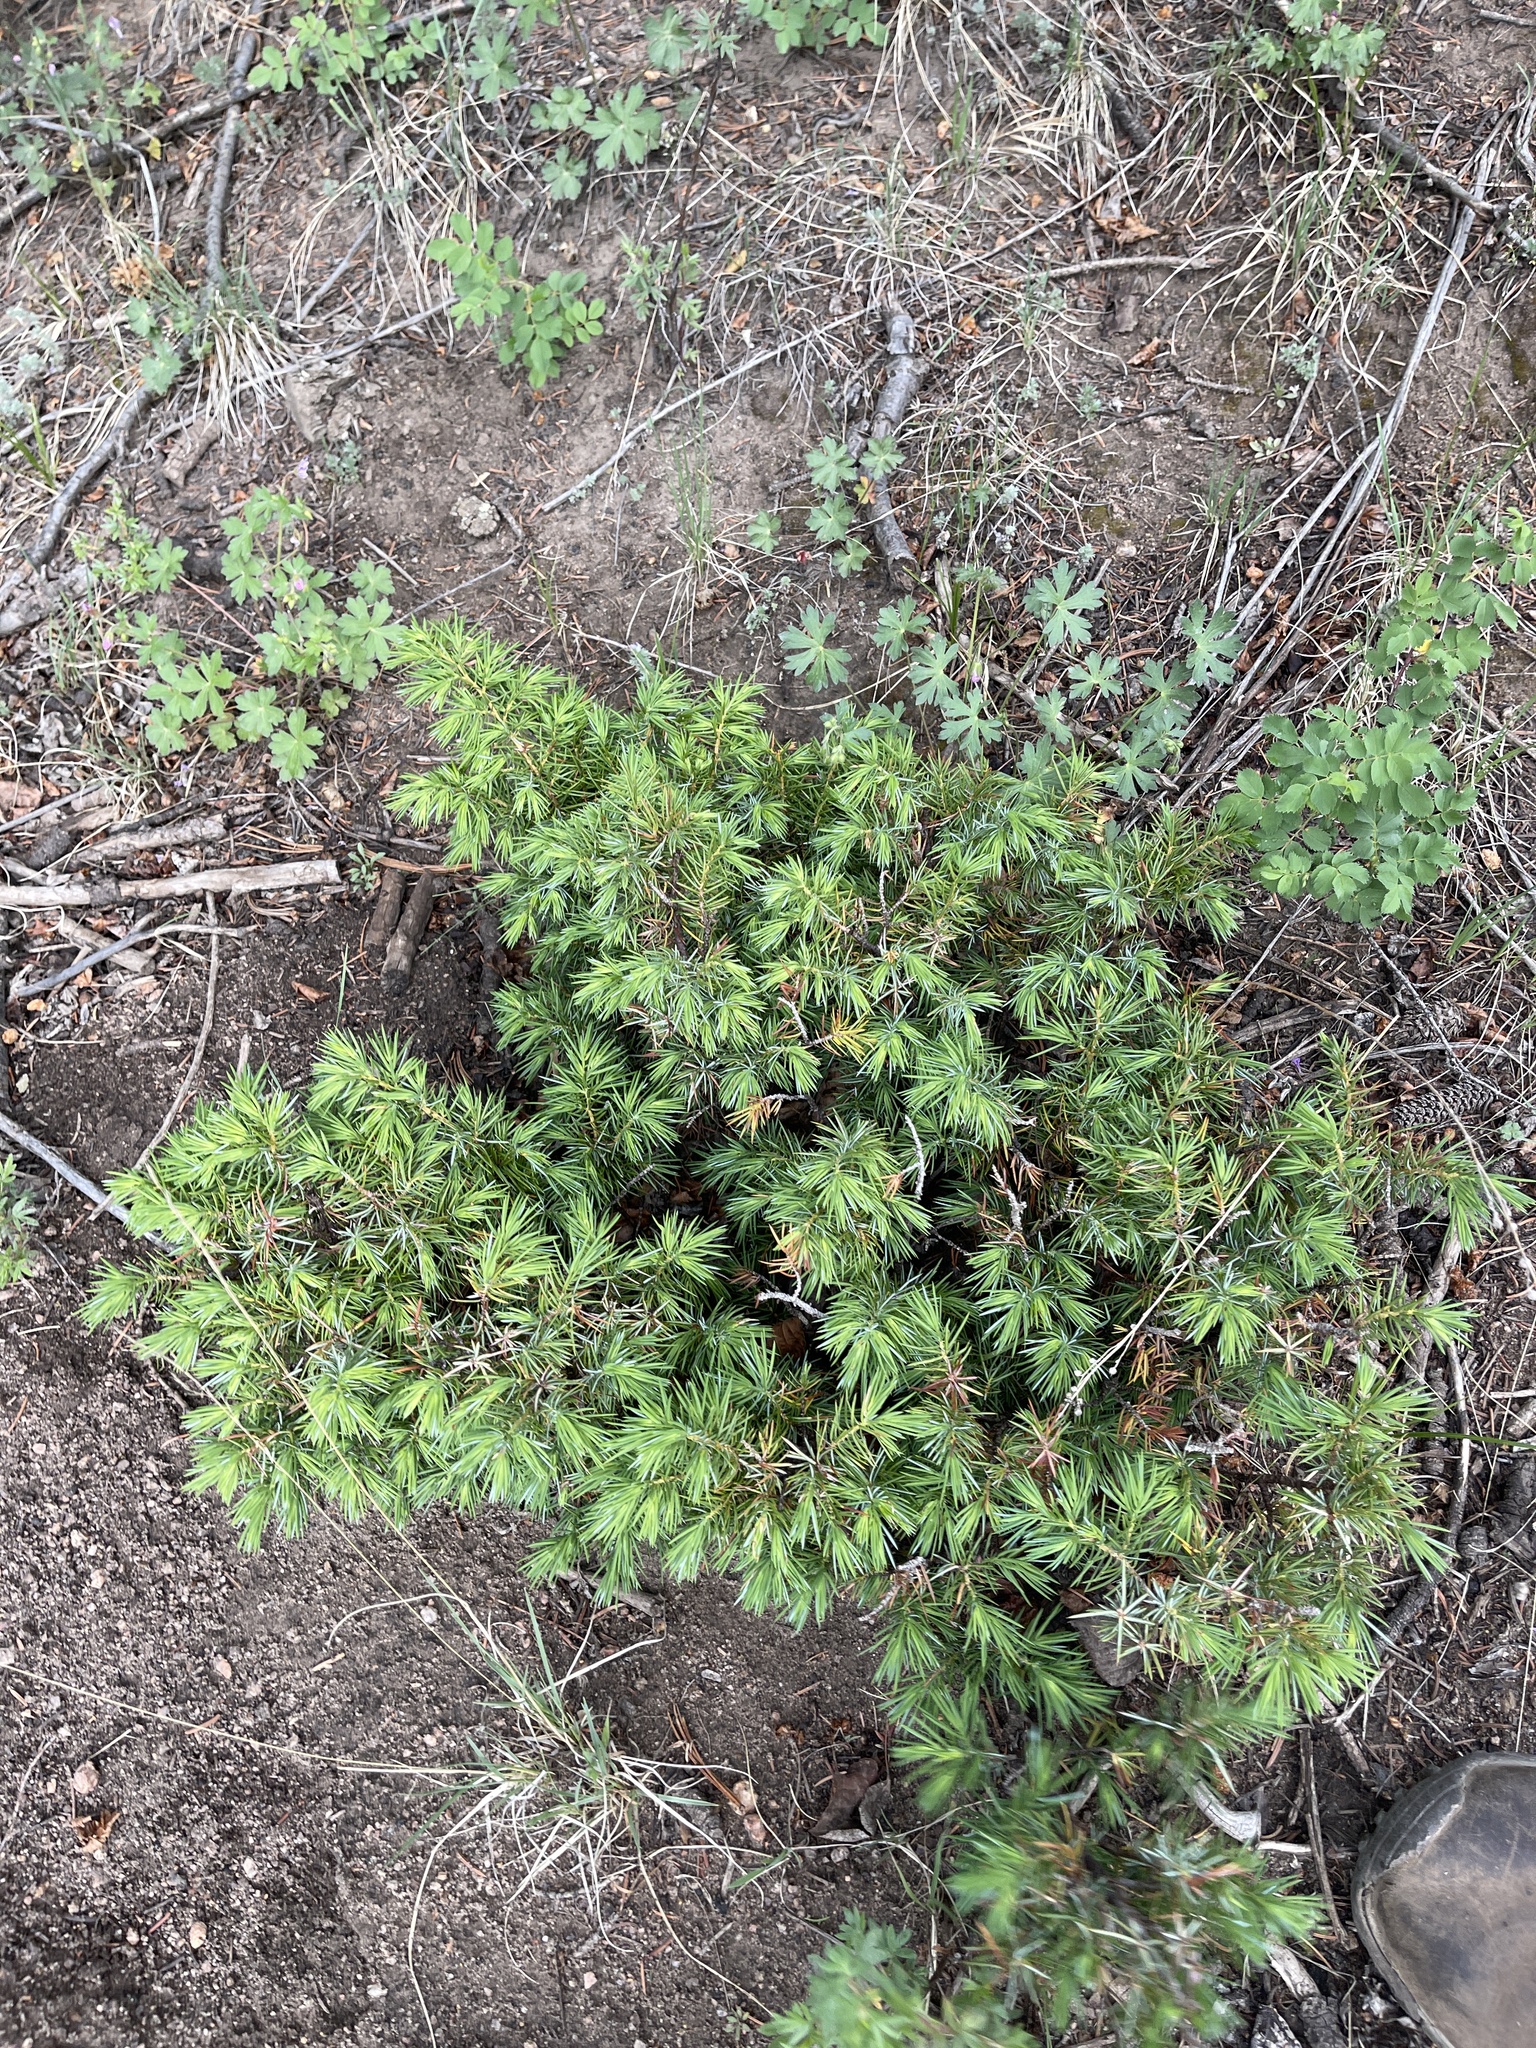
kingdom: Plantae
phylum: Tracheophyta
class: Pinopsida
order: Pinales
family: Cupressaceae
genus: Juniperus
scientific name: Juniperus communis
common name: Common juniper
